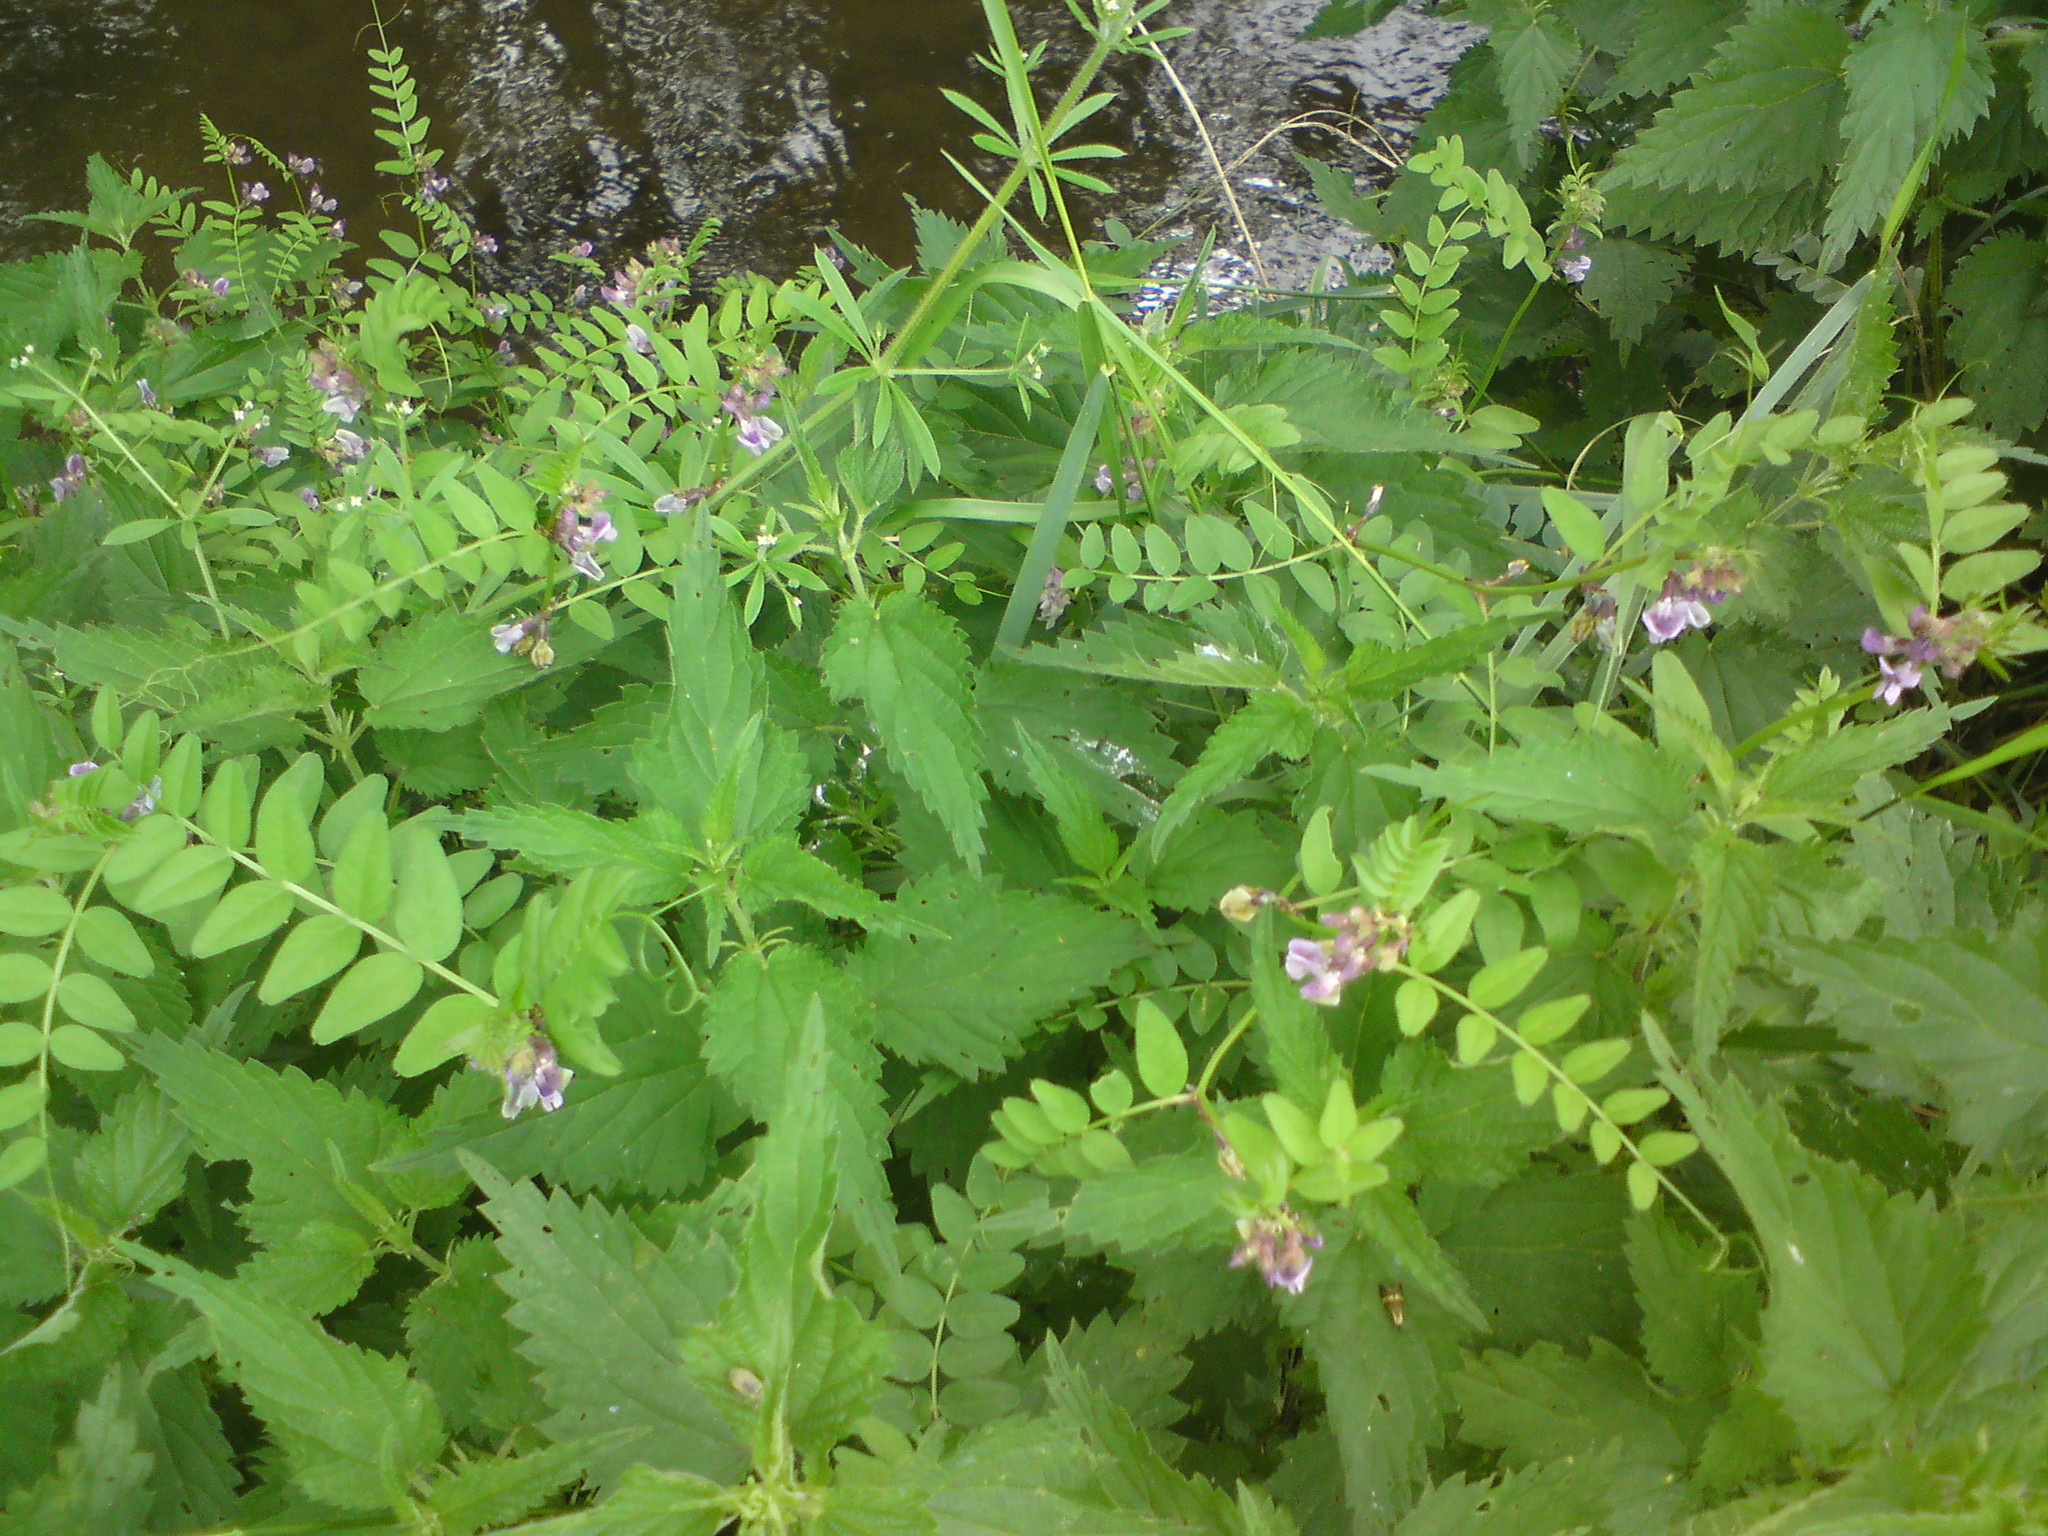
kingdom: Plantae
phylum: Tracheophyta
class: Magnoliopsida
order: Fabales
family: Fabaceae
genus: Vicia
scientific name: Vicia sepium
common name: Bush vetch
